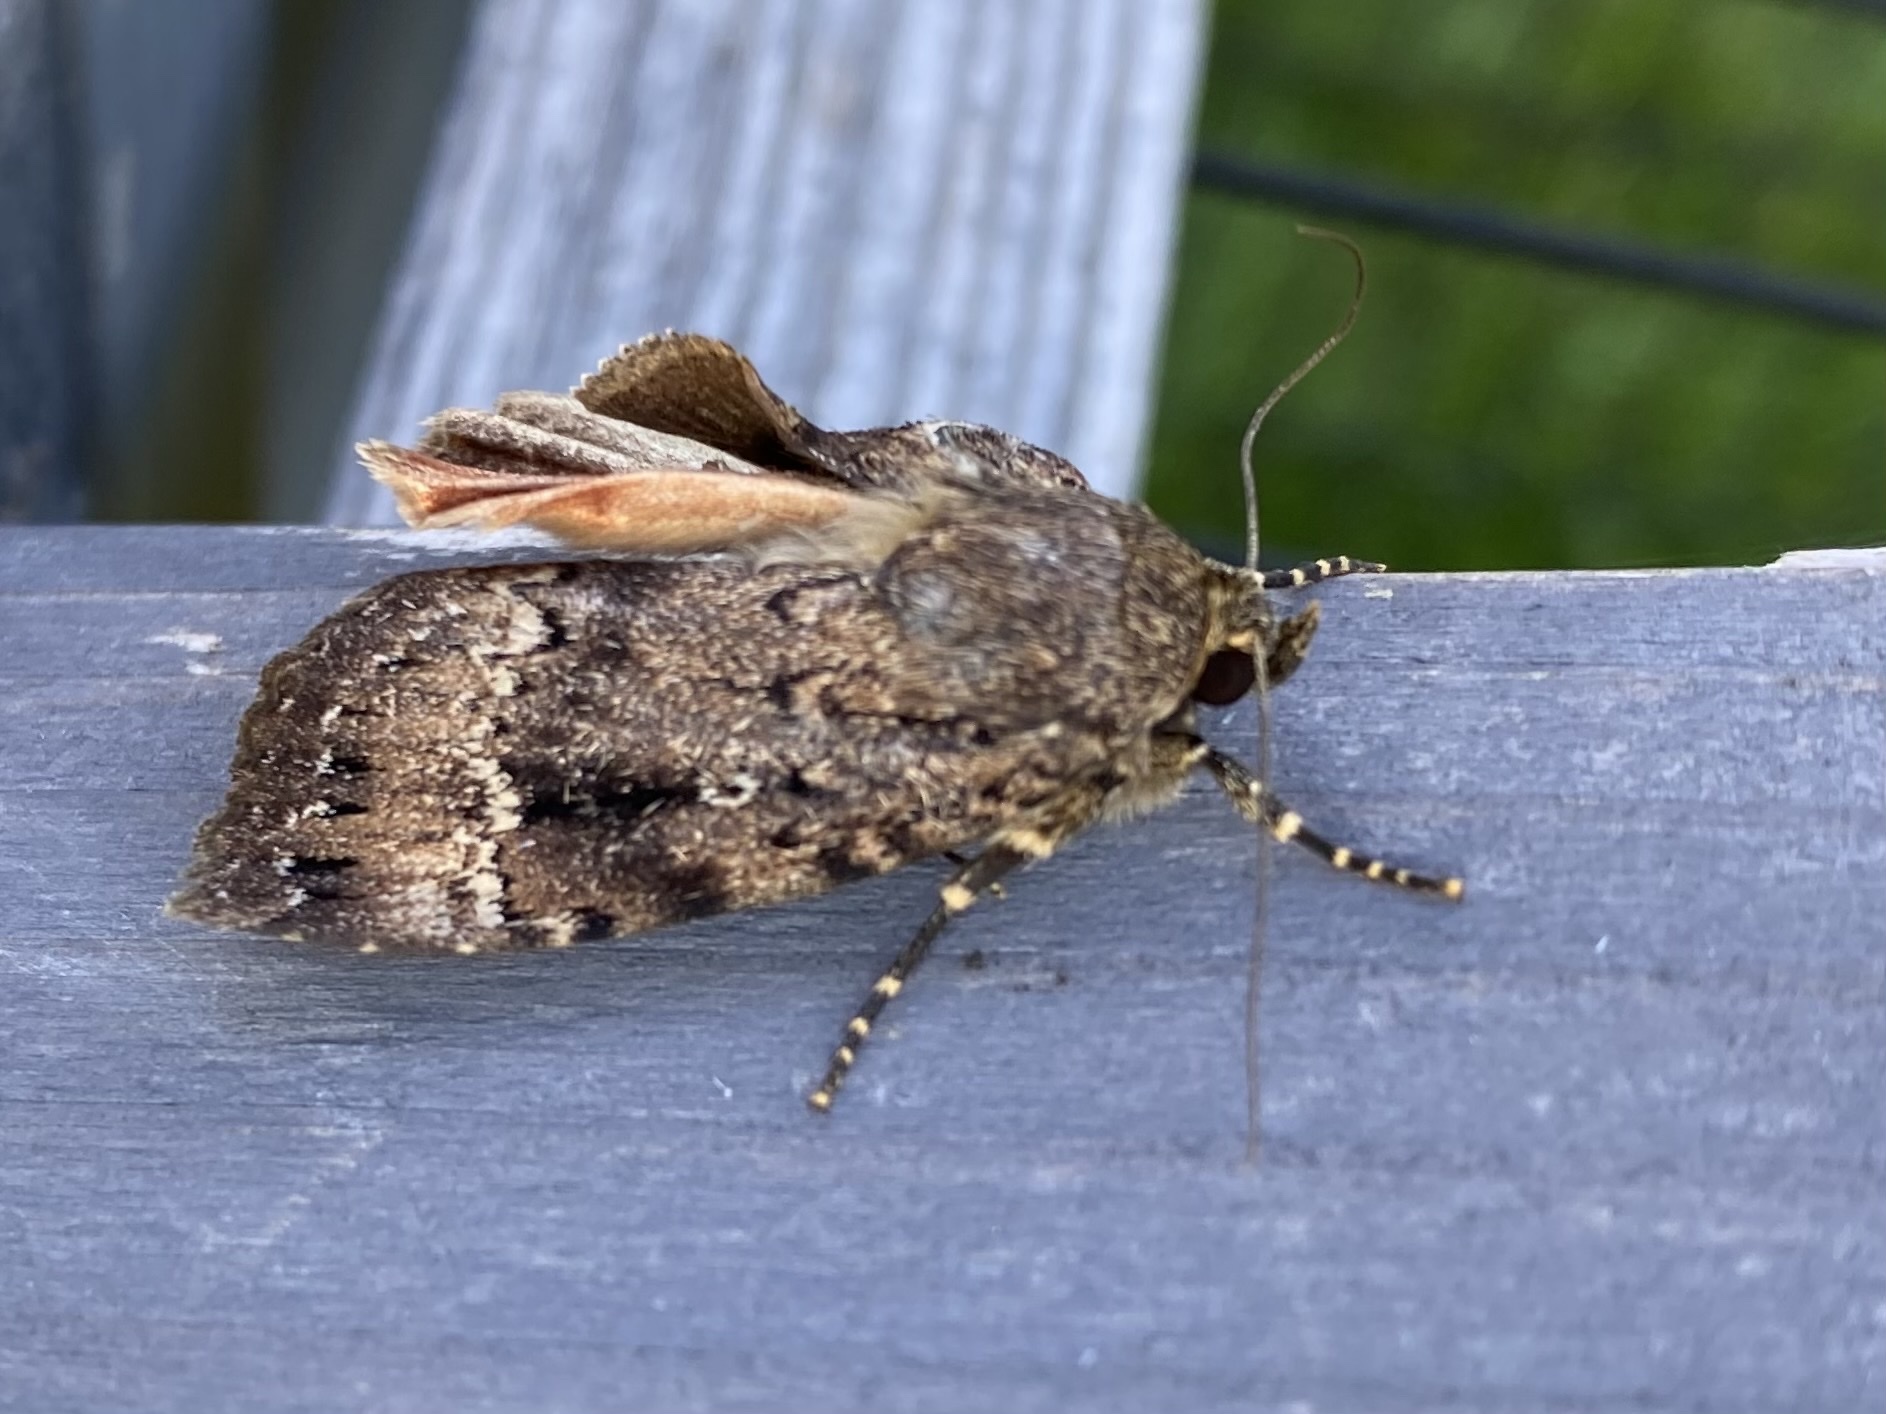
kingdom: Animalia
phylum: Arthropoda
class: Insecta
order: Lepidoptera
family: Noctuidae
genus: Amphipyra
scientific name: Amphipyra pyramidea
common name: Copper underwing
